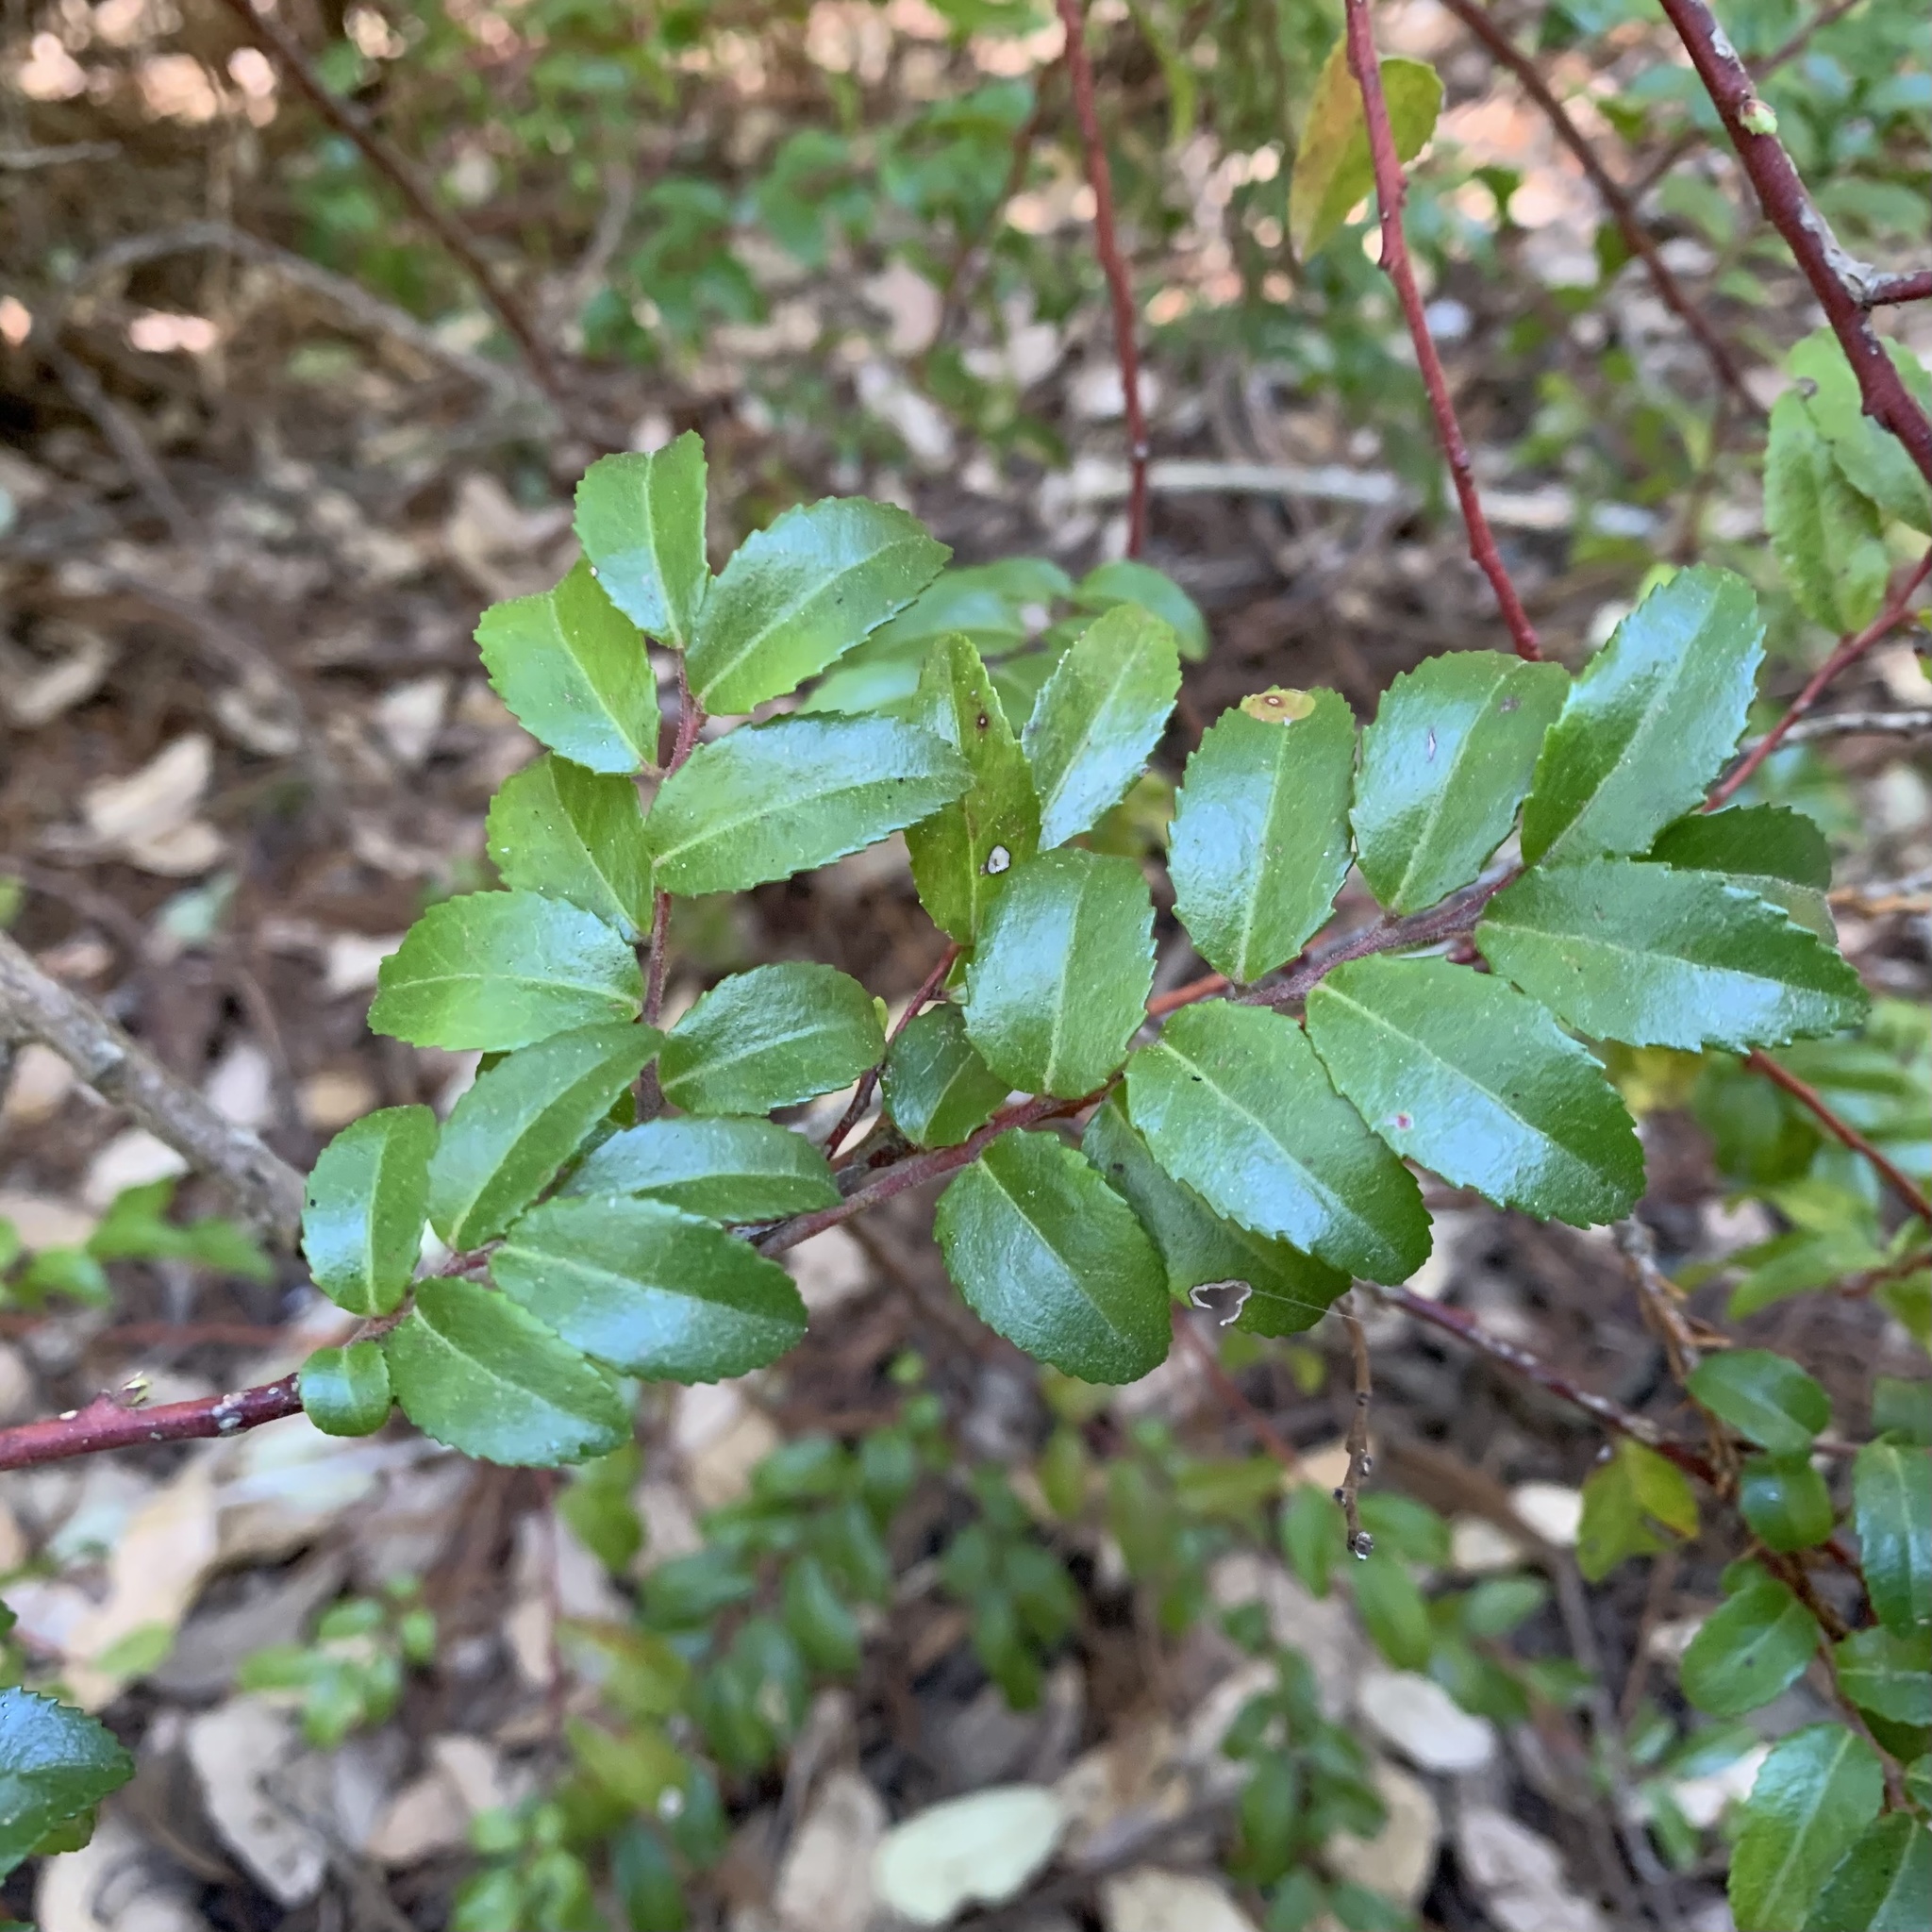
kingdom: Plantae
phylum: Tracheophyta
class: Magnoliopsida
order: Ericales
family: Ericaceae
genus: Vaccinium
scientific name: Vaccinium ovatum
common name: California-huckleberry
